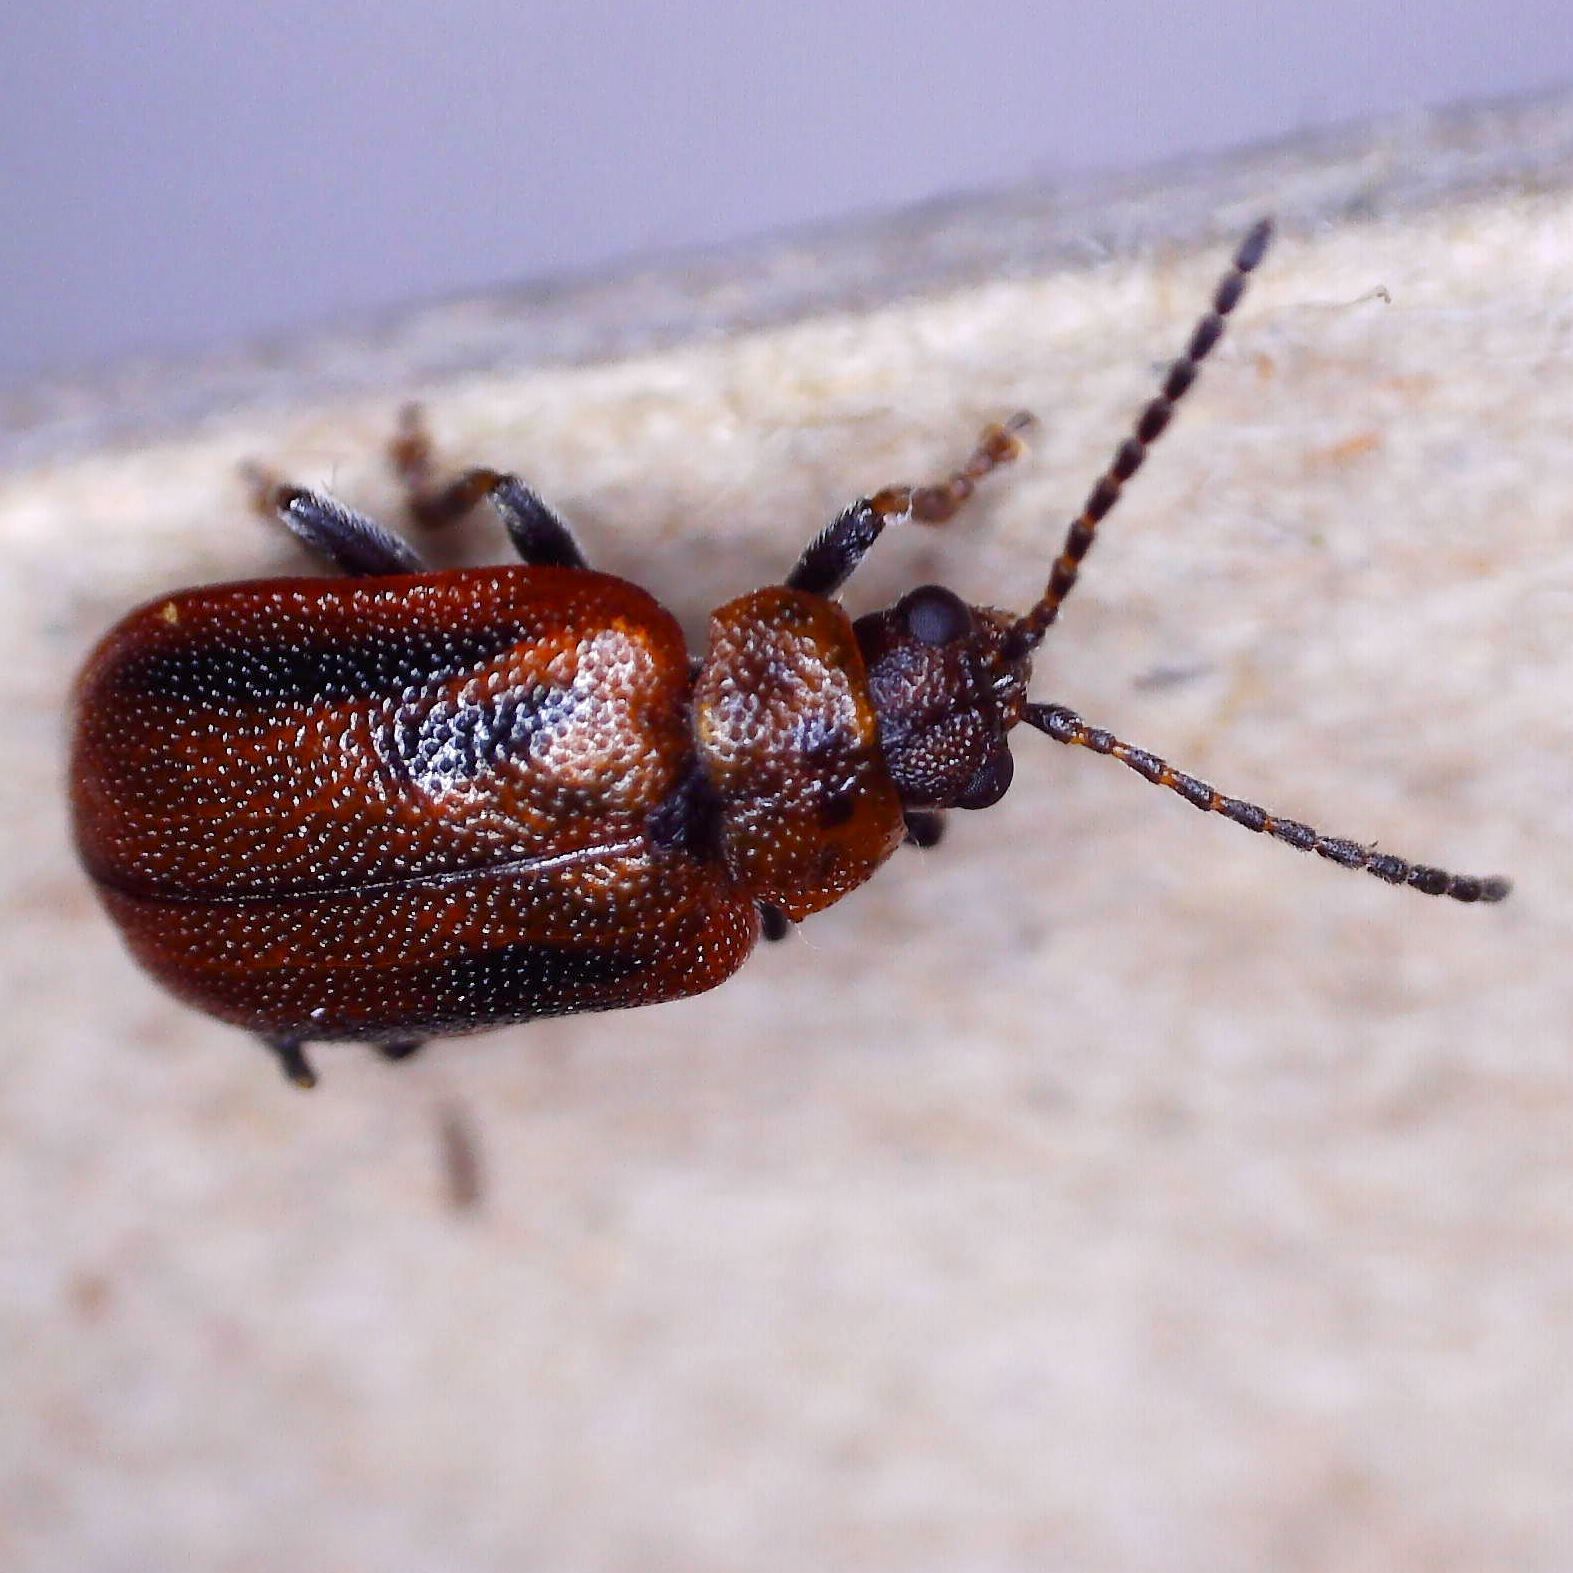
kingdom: Animalia
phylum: Arthropoda
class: Insecta
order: Coleoptera
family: Chrysomelidae
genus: Lochmaea
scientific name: Lochmaea crataegi
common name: Hawthorn leaf beetle
